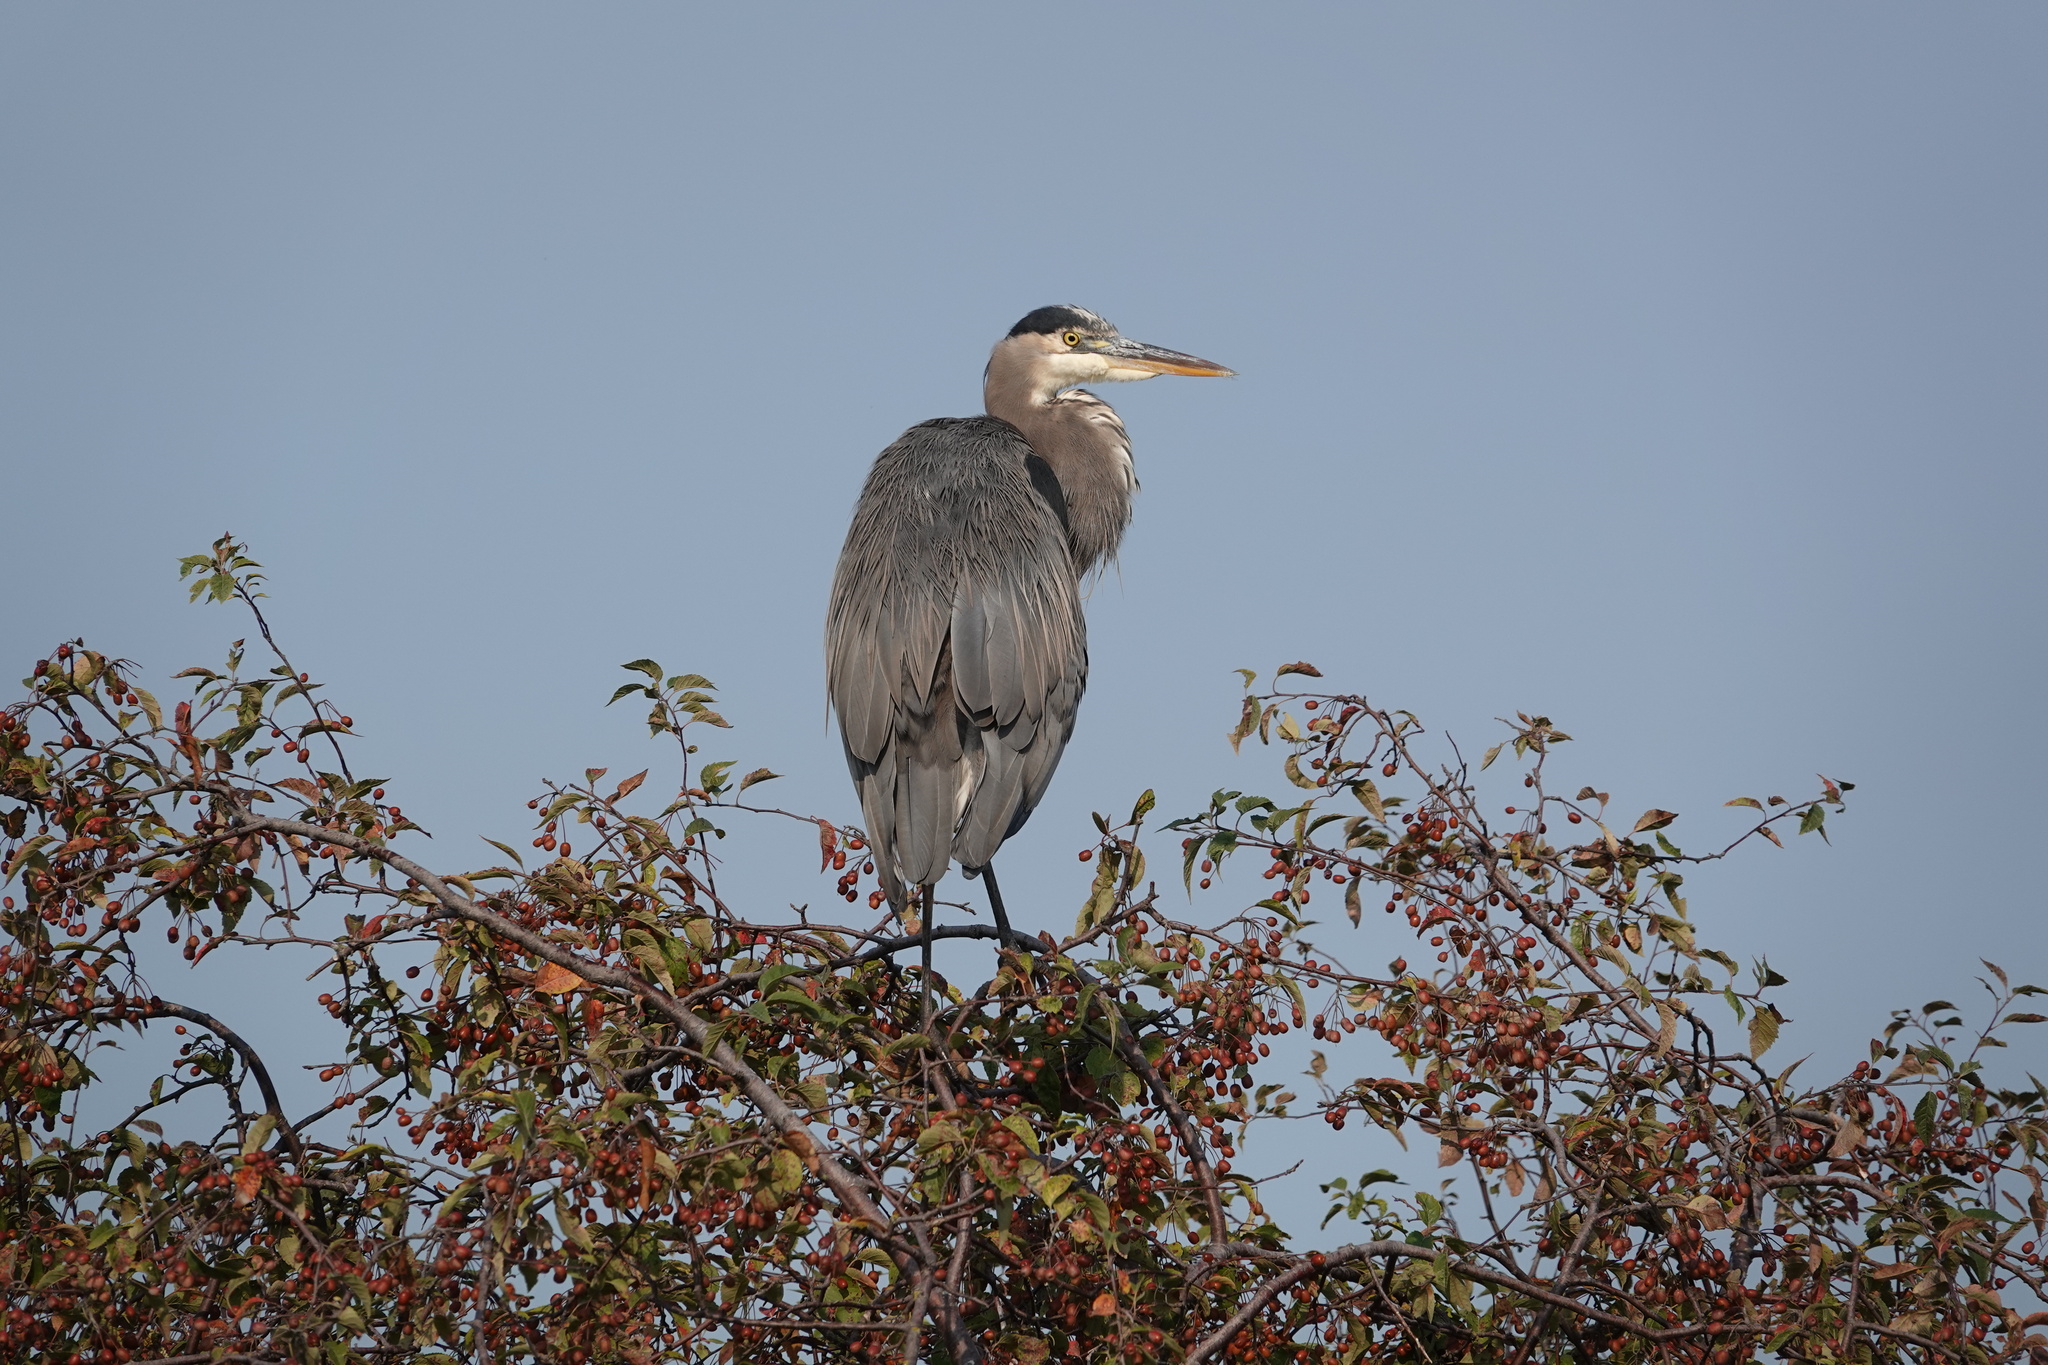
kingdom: Animalia
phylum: Chordata
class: Aves
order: Pelecaniformes
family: Ardeidae
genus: Ardea
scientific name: Ardea herodias
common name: Great blue heron
